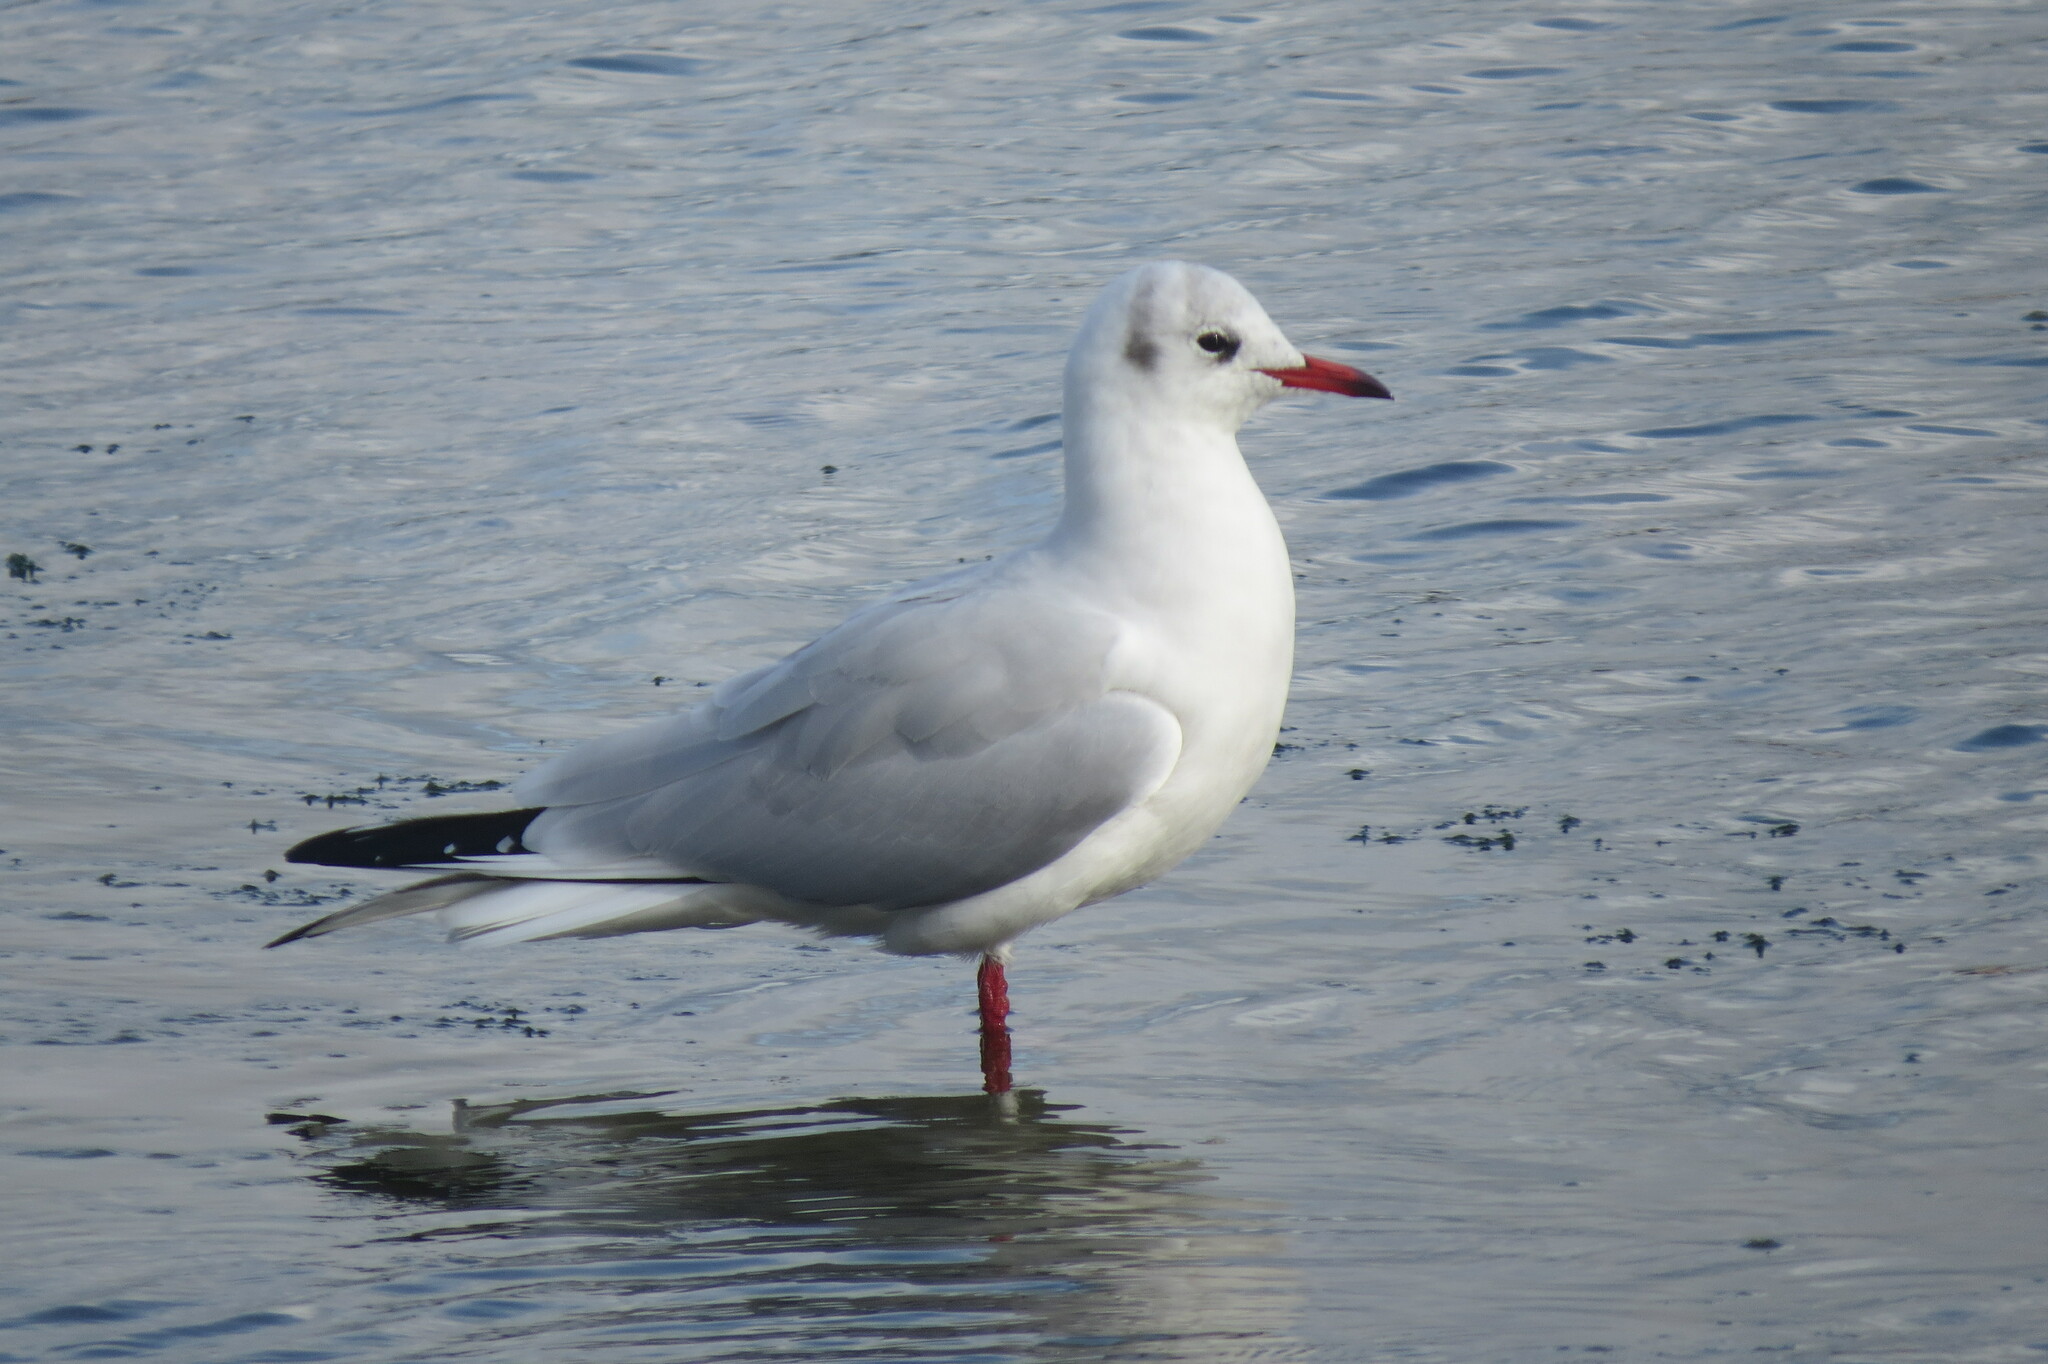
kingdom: Animalia
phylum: Chordata
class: Aves
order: Charadriiformes
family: Laridae
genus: Chroicocephalus
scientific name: Chroicocephalus ridibundus
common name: Black-headed gull
